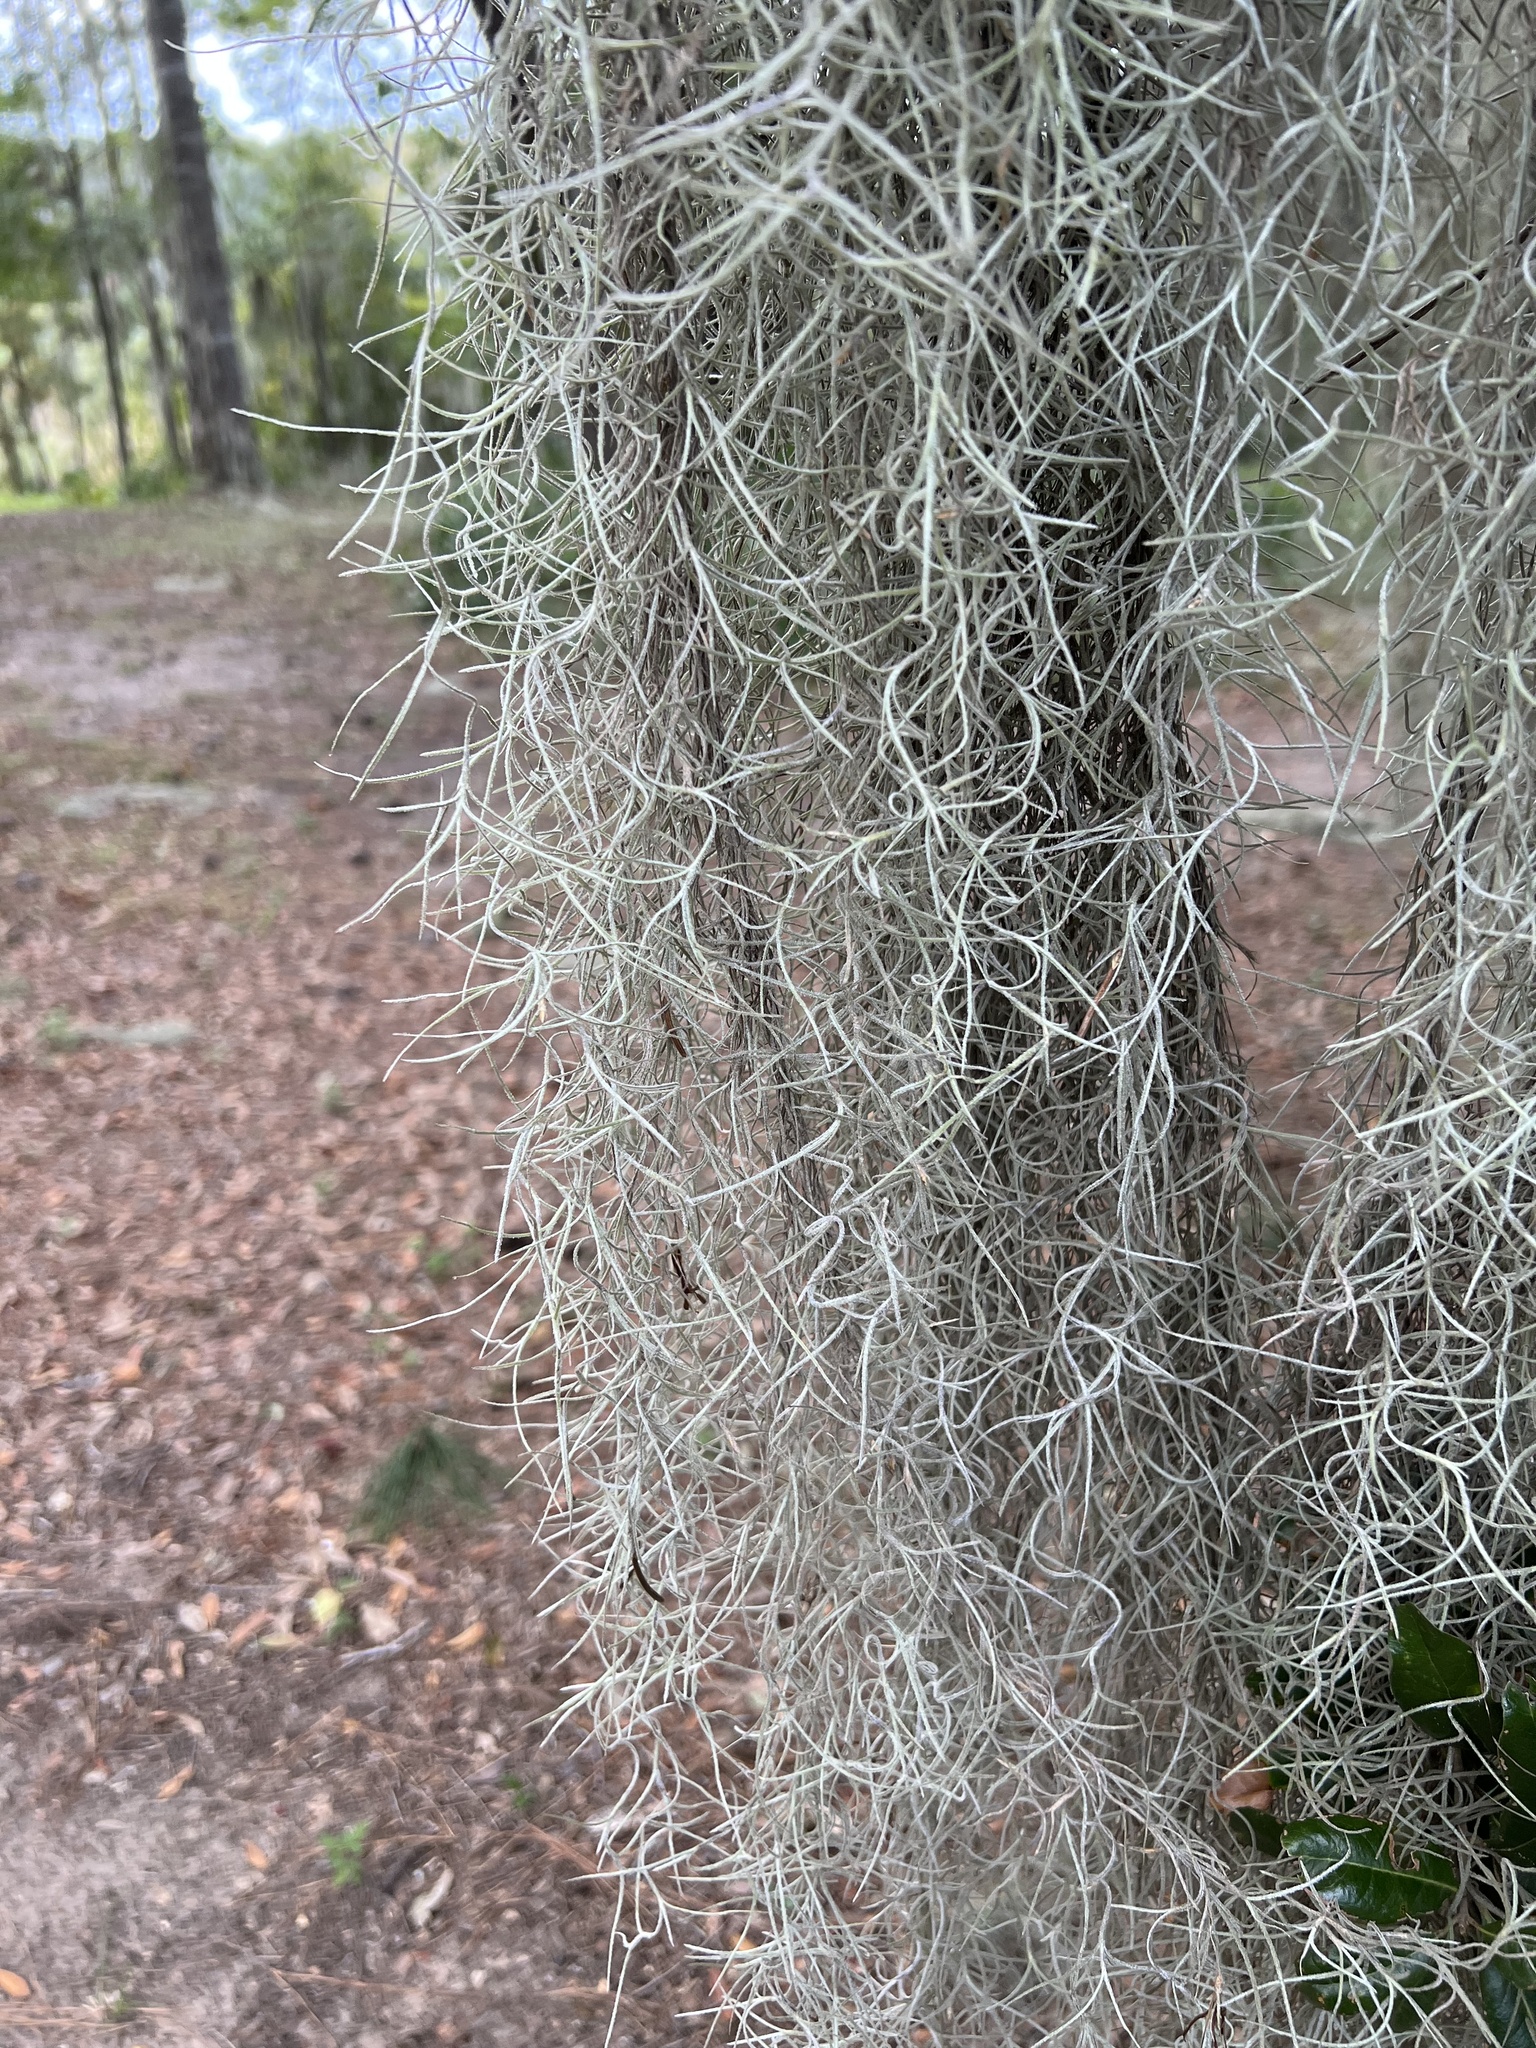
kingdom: Plantae
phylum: Tracheophyta
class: Liliopsida
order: Poales
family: Bromeliaceae
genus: Tillandsia
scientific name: Tillandsia usneoides
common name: Spanish moss
